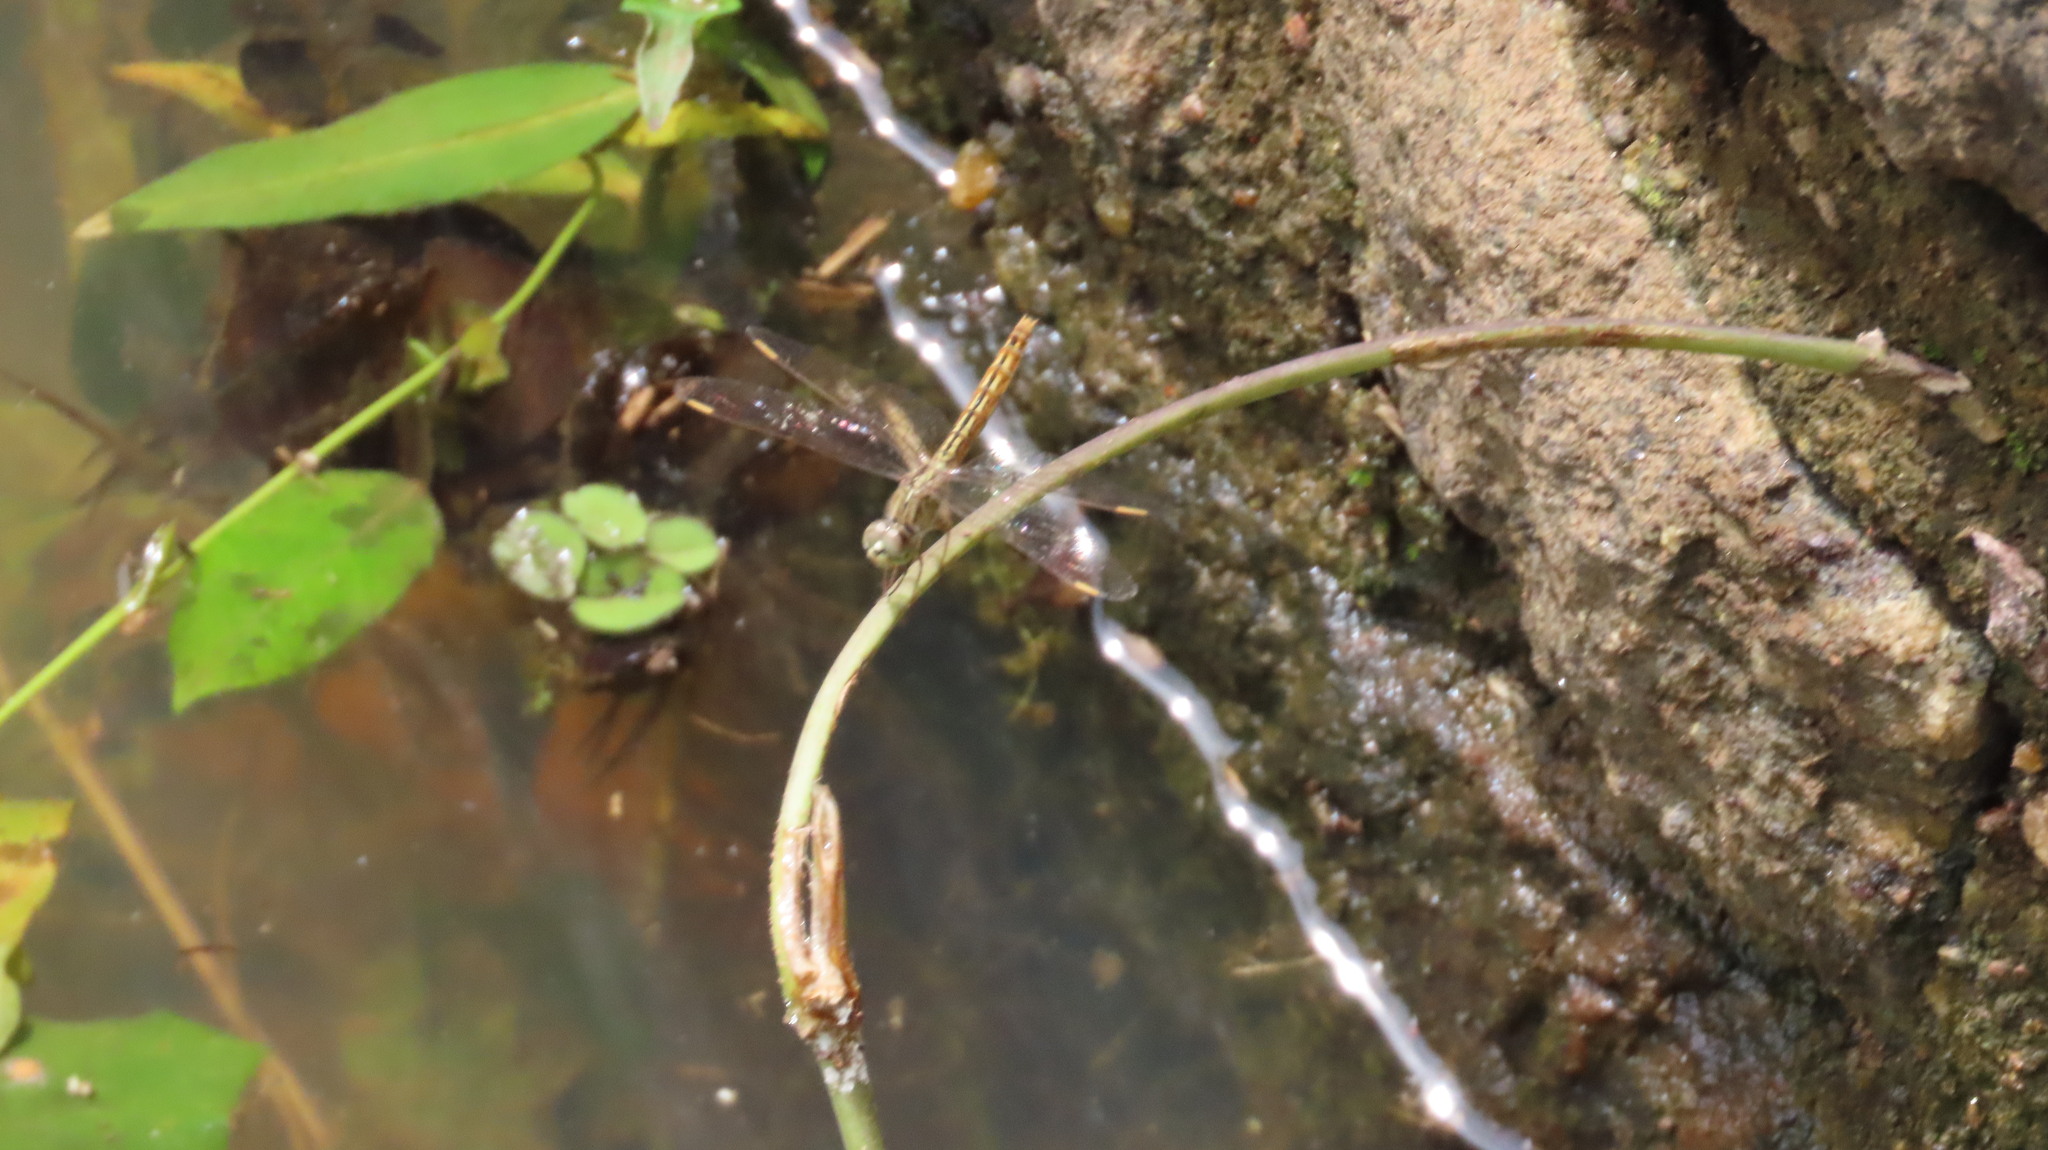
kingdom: Animalia
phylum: Arthropoda
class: Insecta
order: Odonata
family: Libellulidae
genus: Brachythemis
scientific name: Brachythemis contaminata
